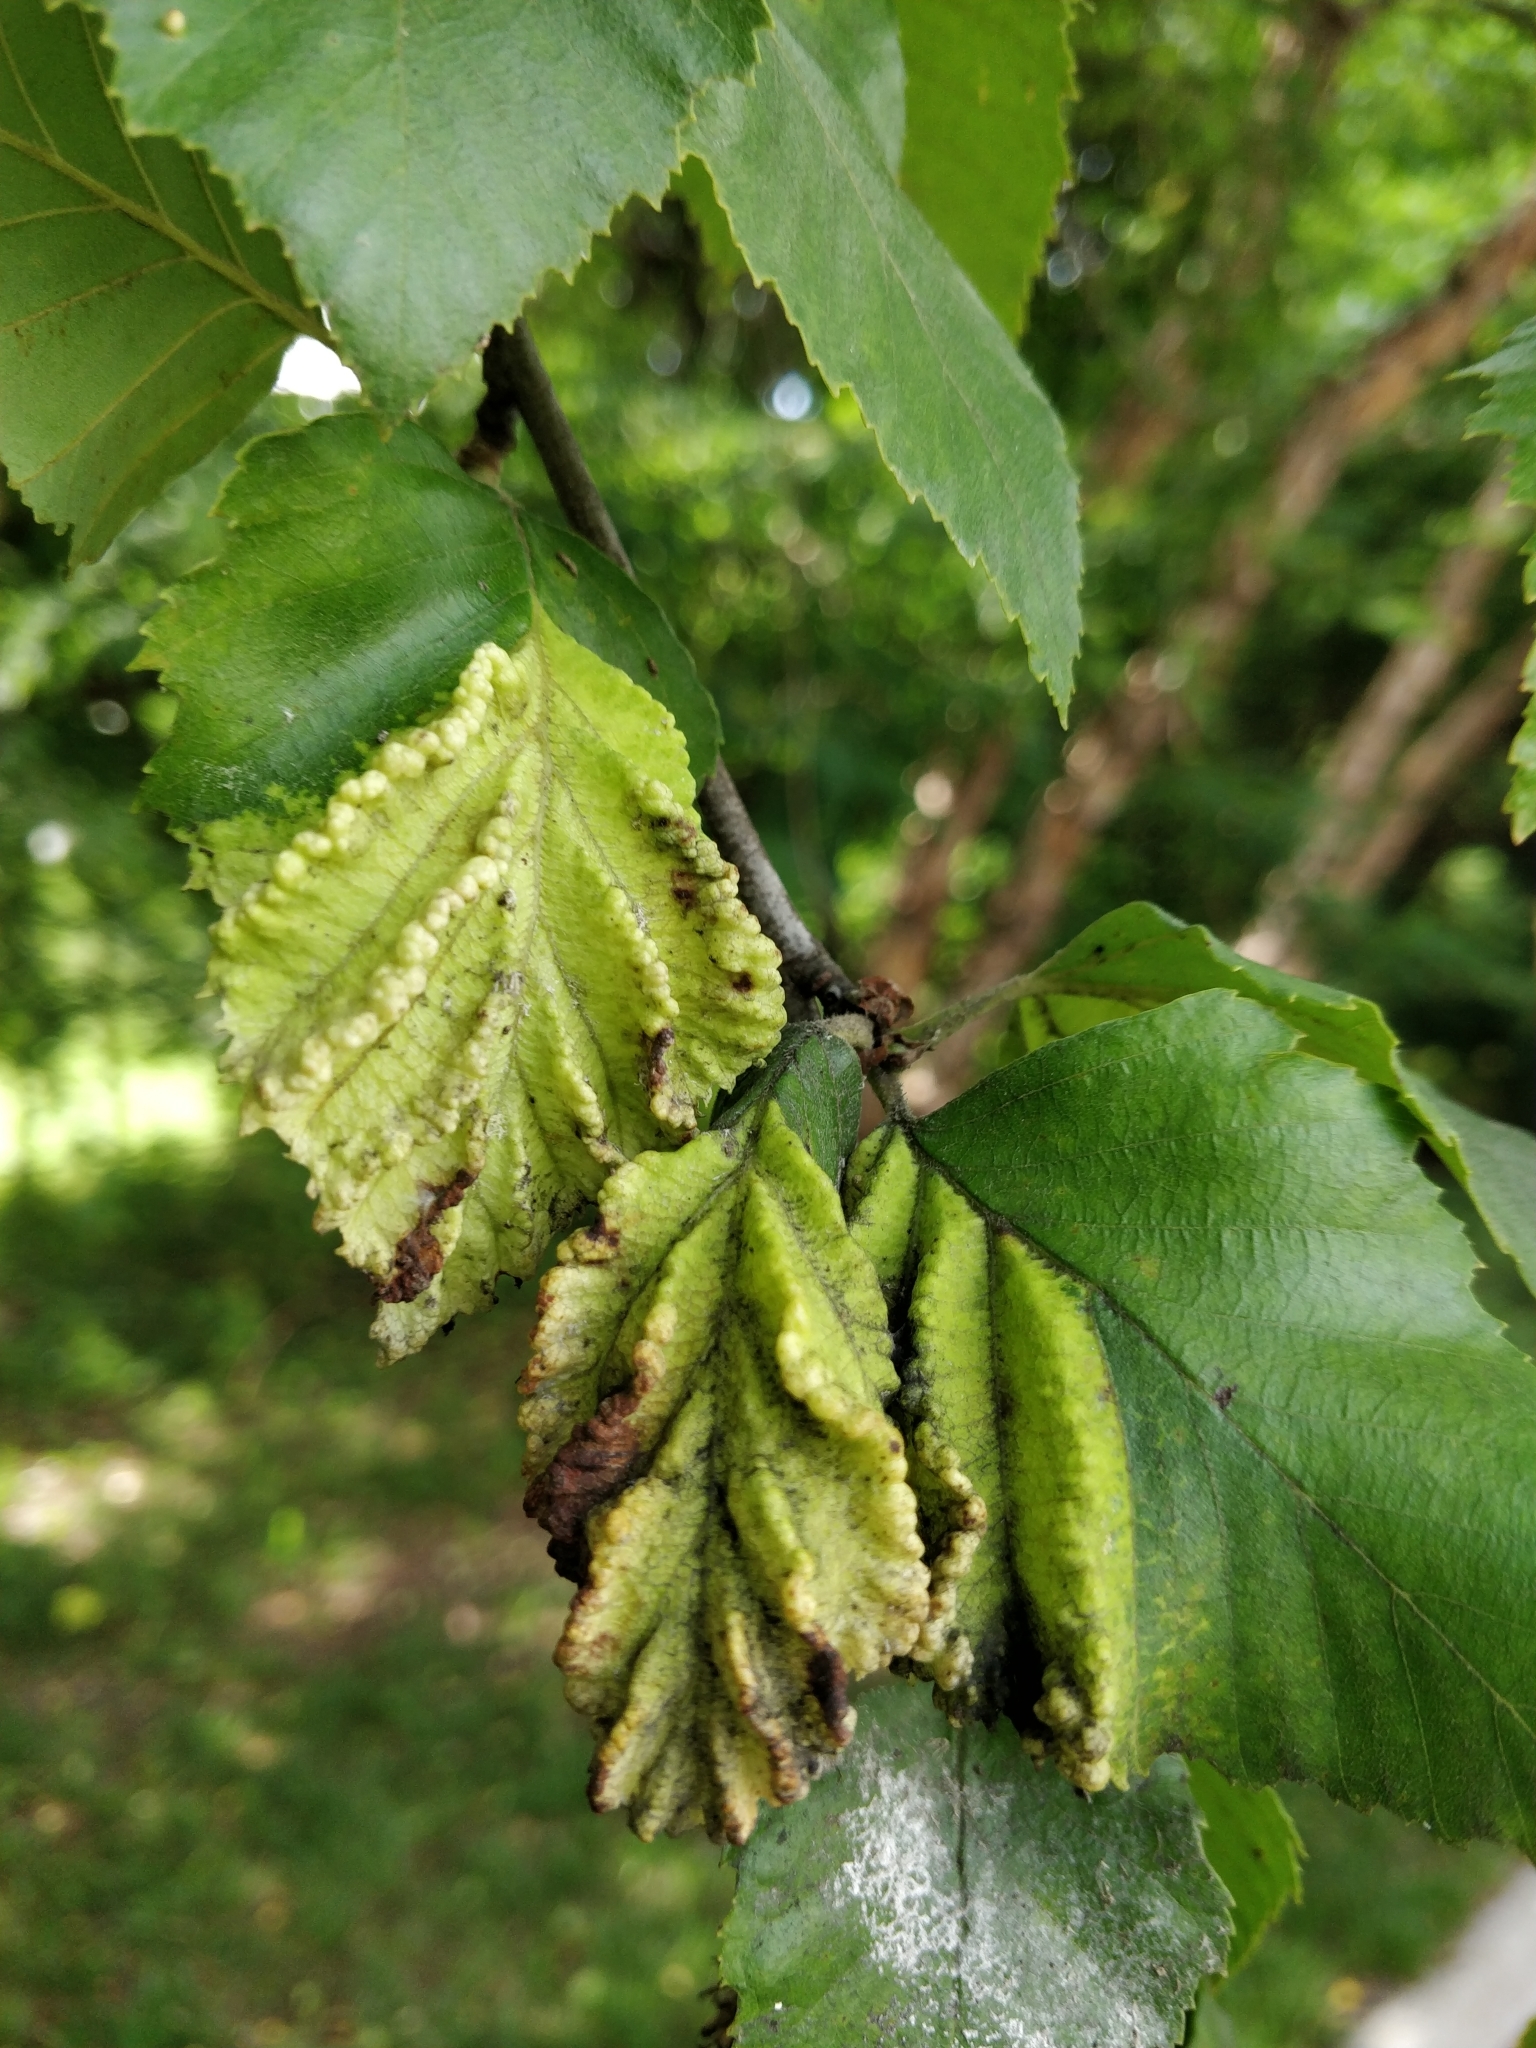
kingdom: Animalia
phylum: Arthropoda
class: Insecta
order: Hemiptera
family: Aphididae
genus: Hamamelistes
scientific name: Hamamelistes spinosus
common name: Witch hazel gall aphid
